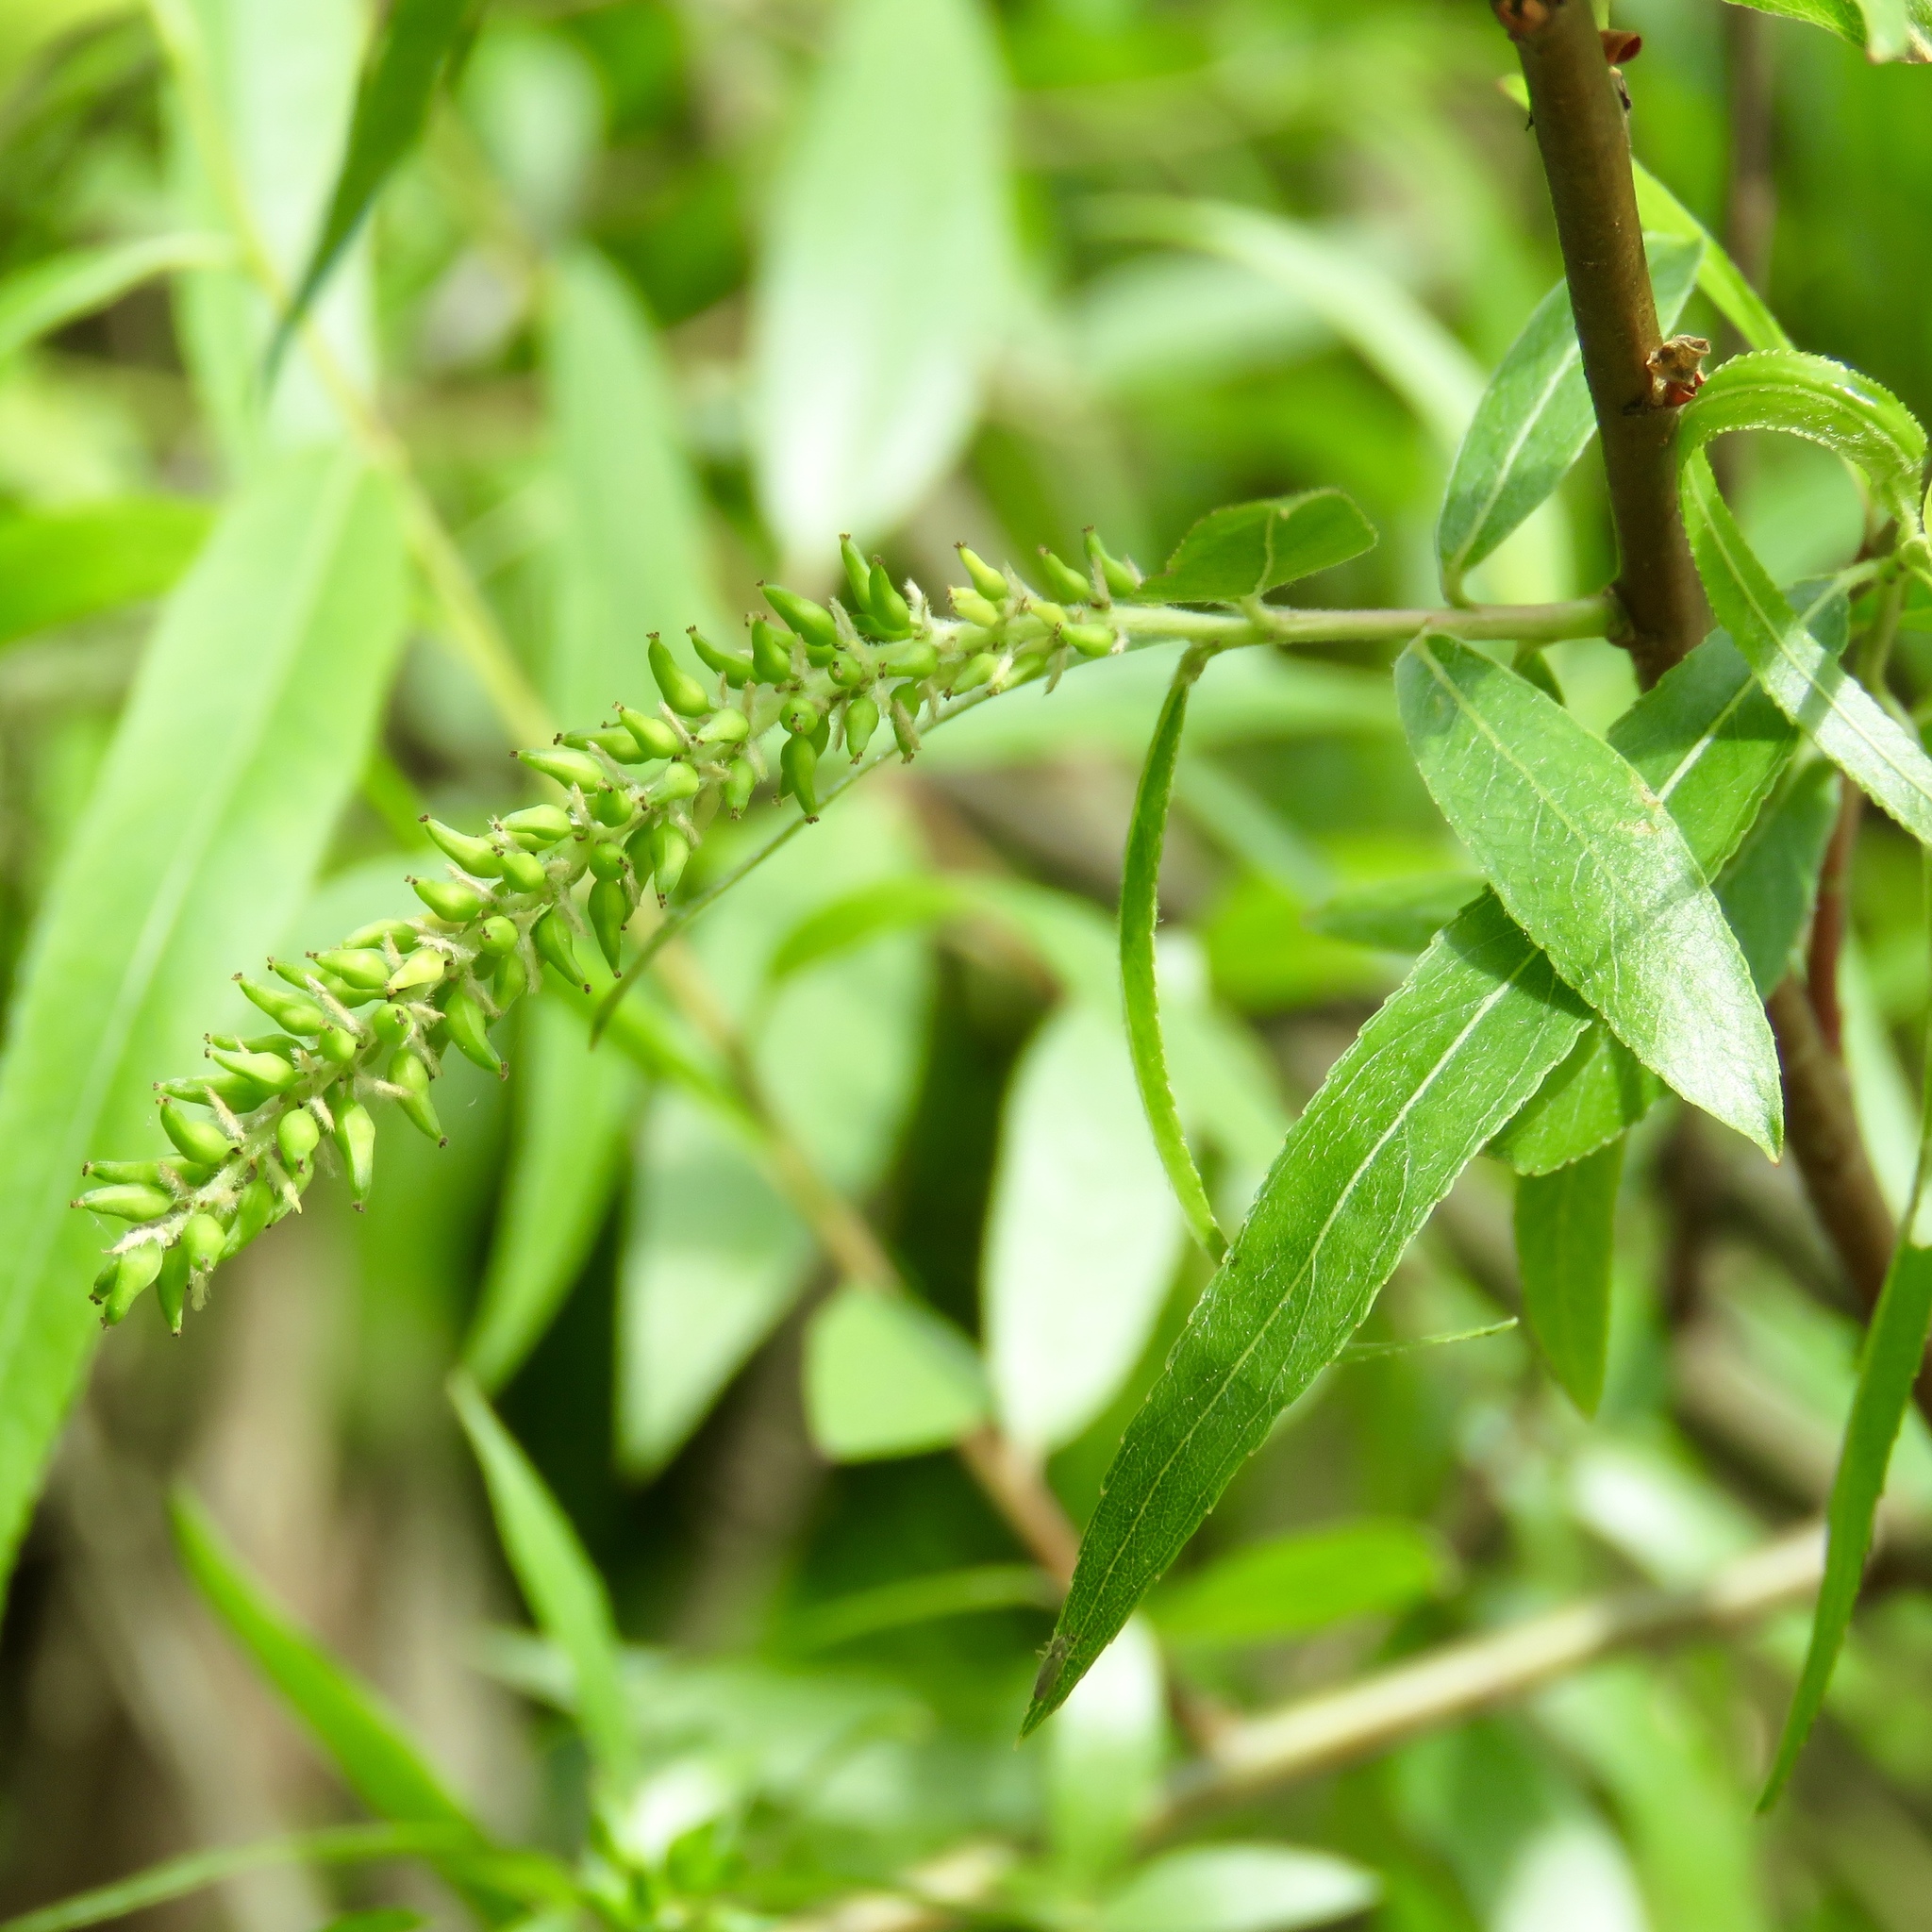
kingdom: Plantae
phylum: Tracheophyta
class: Magnoliopsida
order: Malpighiales
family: Salicaceae
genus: Salix
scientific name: Salix nigra
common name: Black willow
